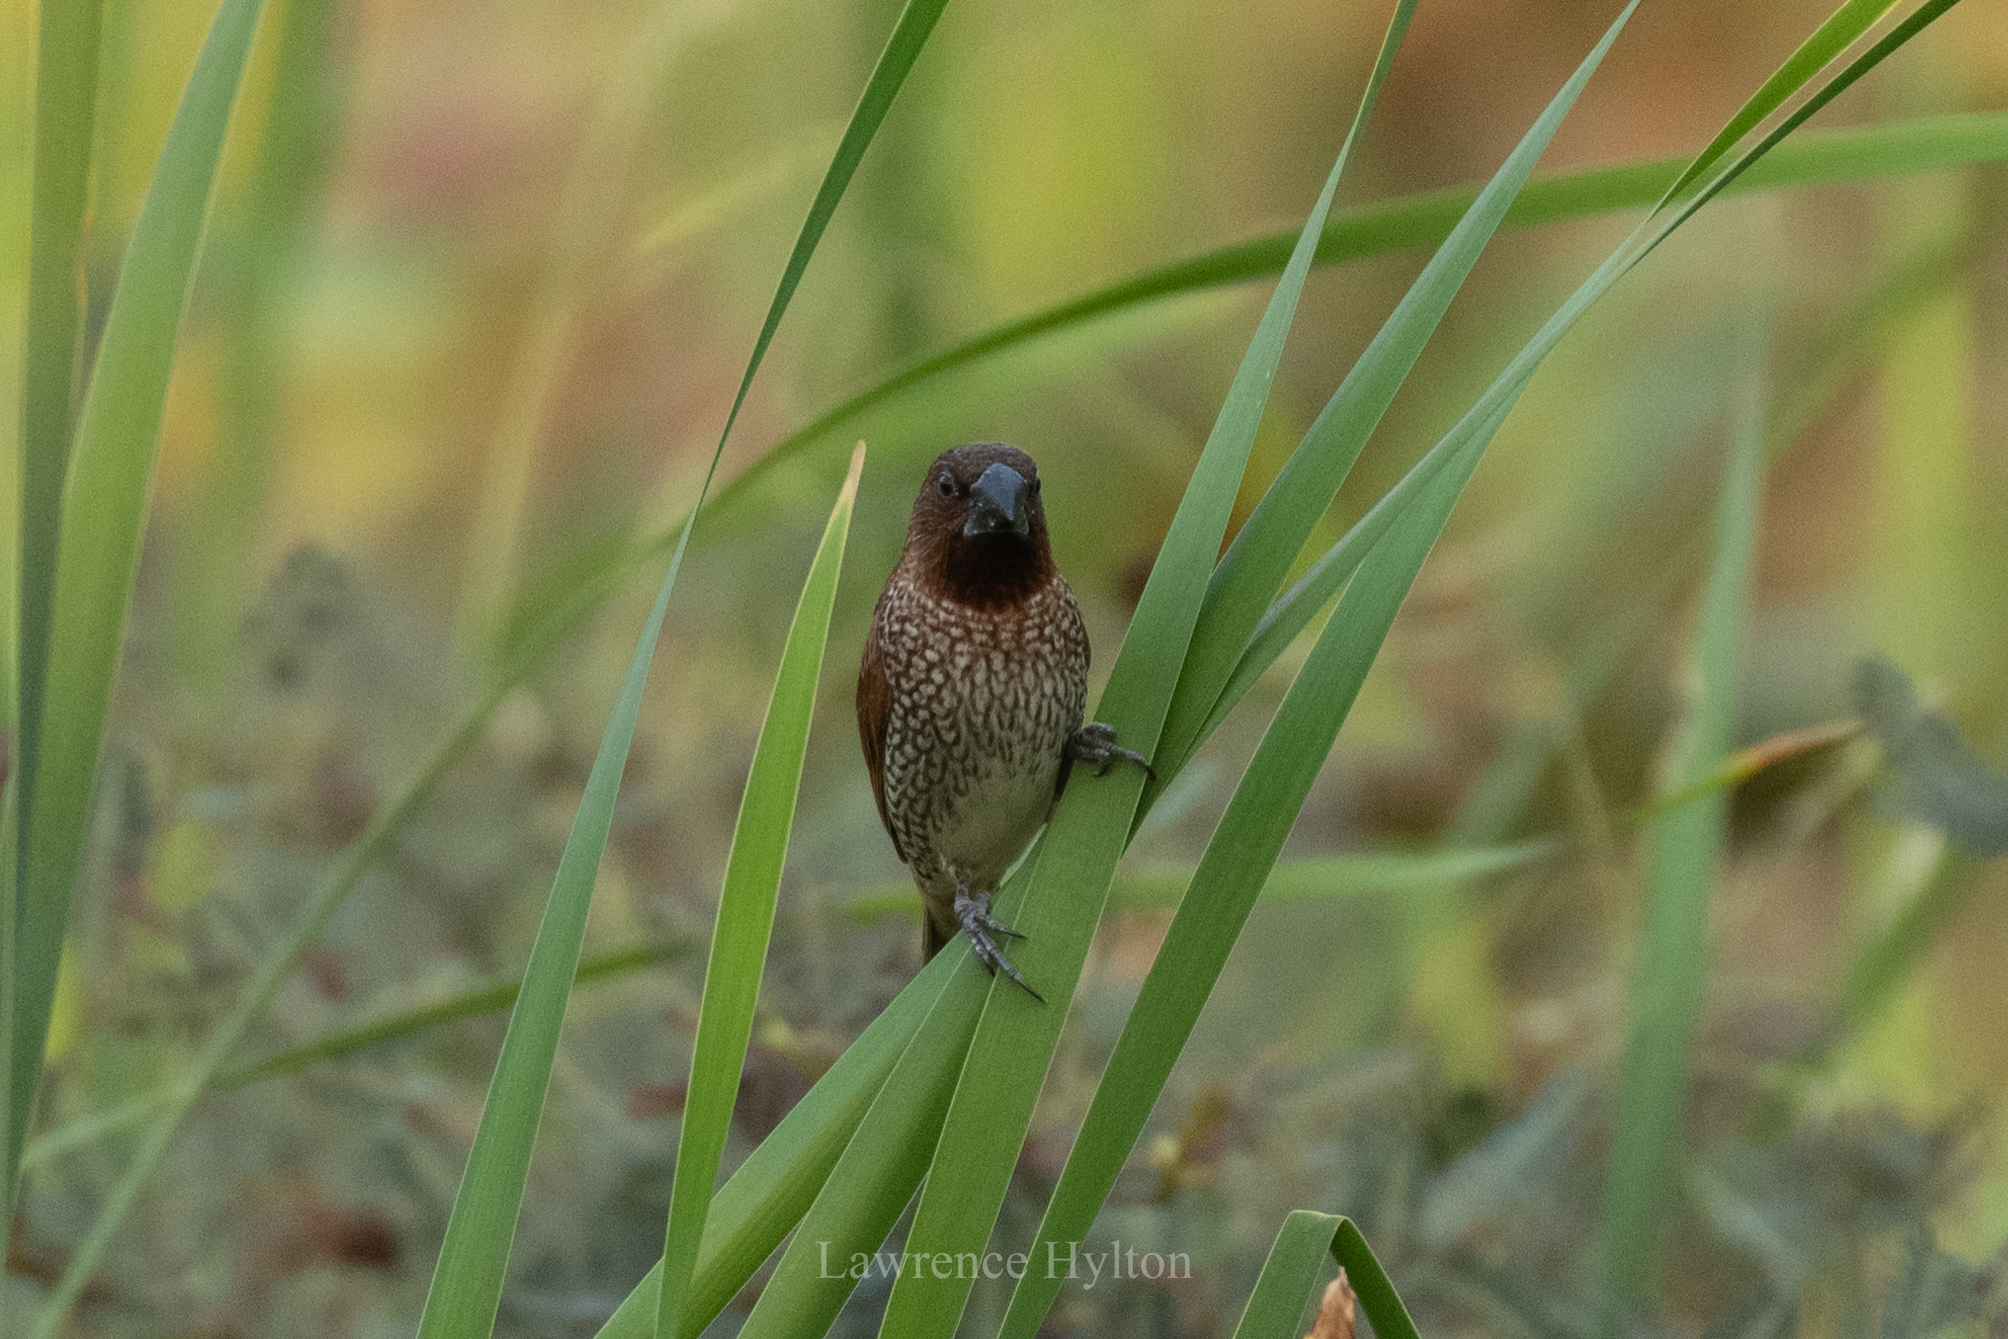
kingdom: Animalia
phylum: Chordata
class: Aves
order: Passeriformes
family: Estrildidae
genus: Lonchura
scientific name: Lonchura punctulata
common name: Scaly-breasted munia
